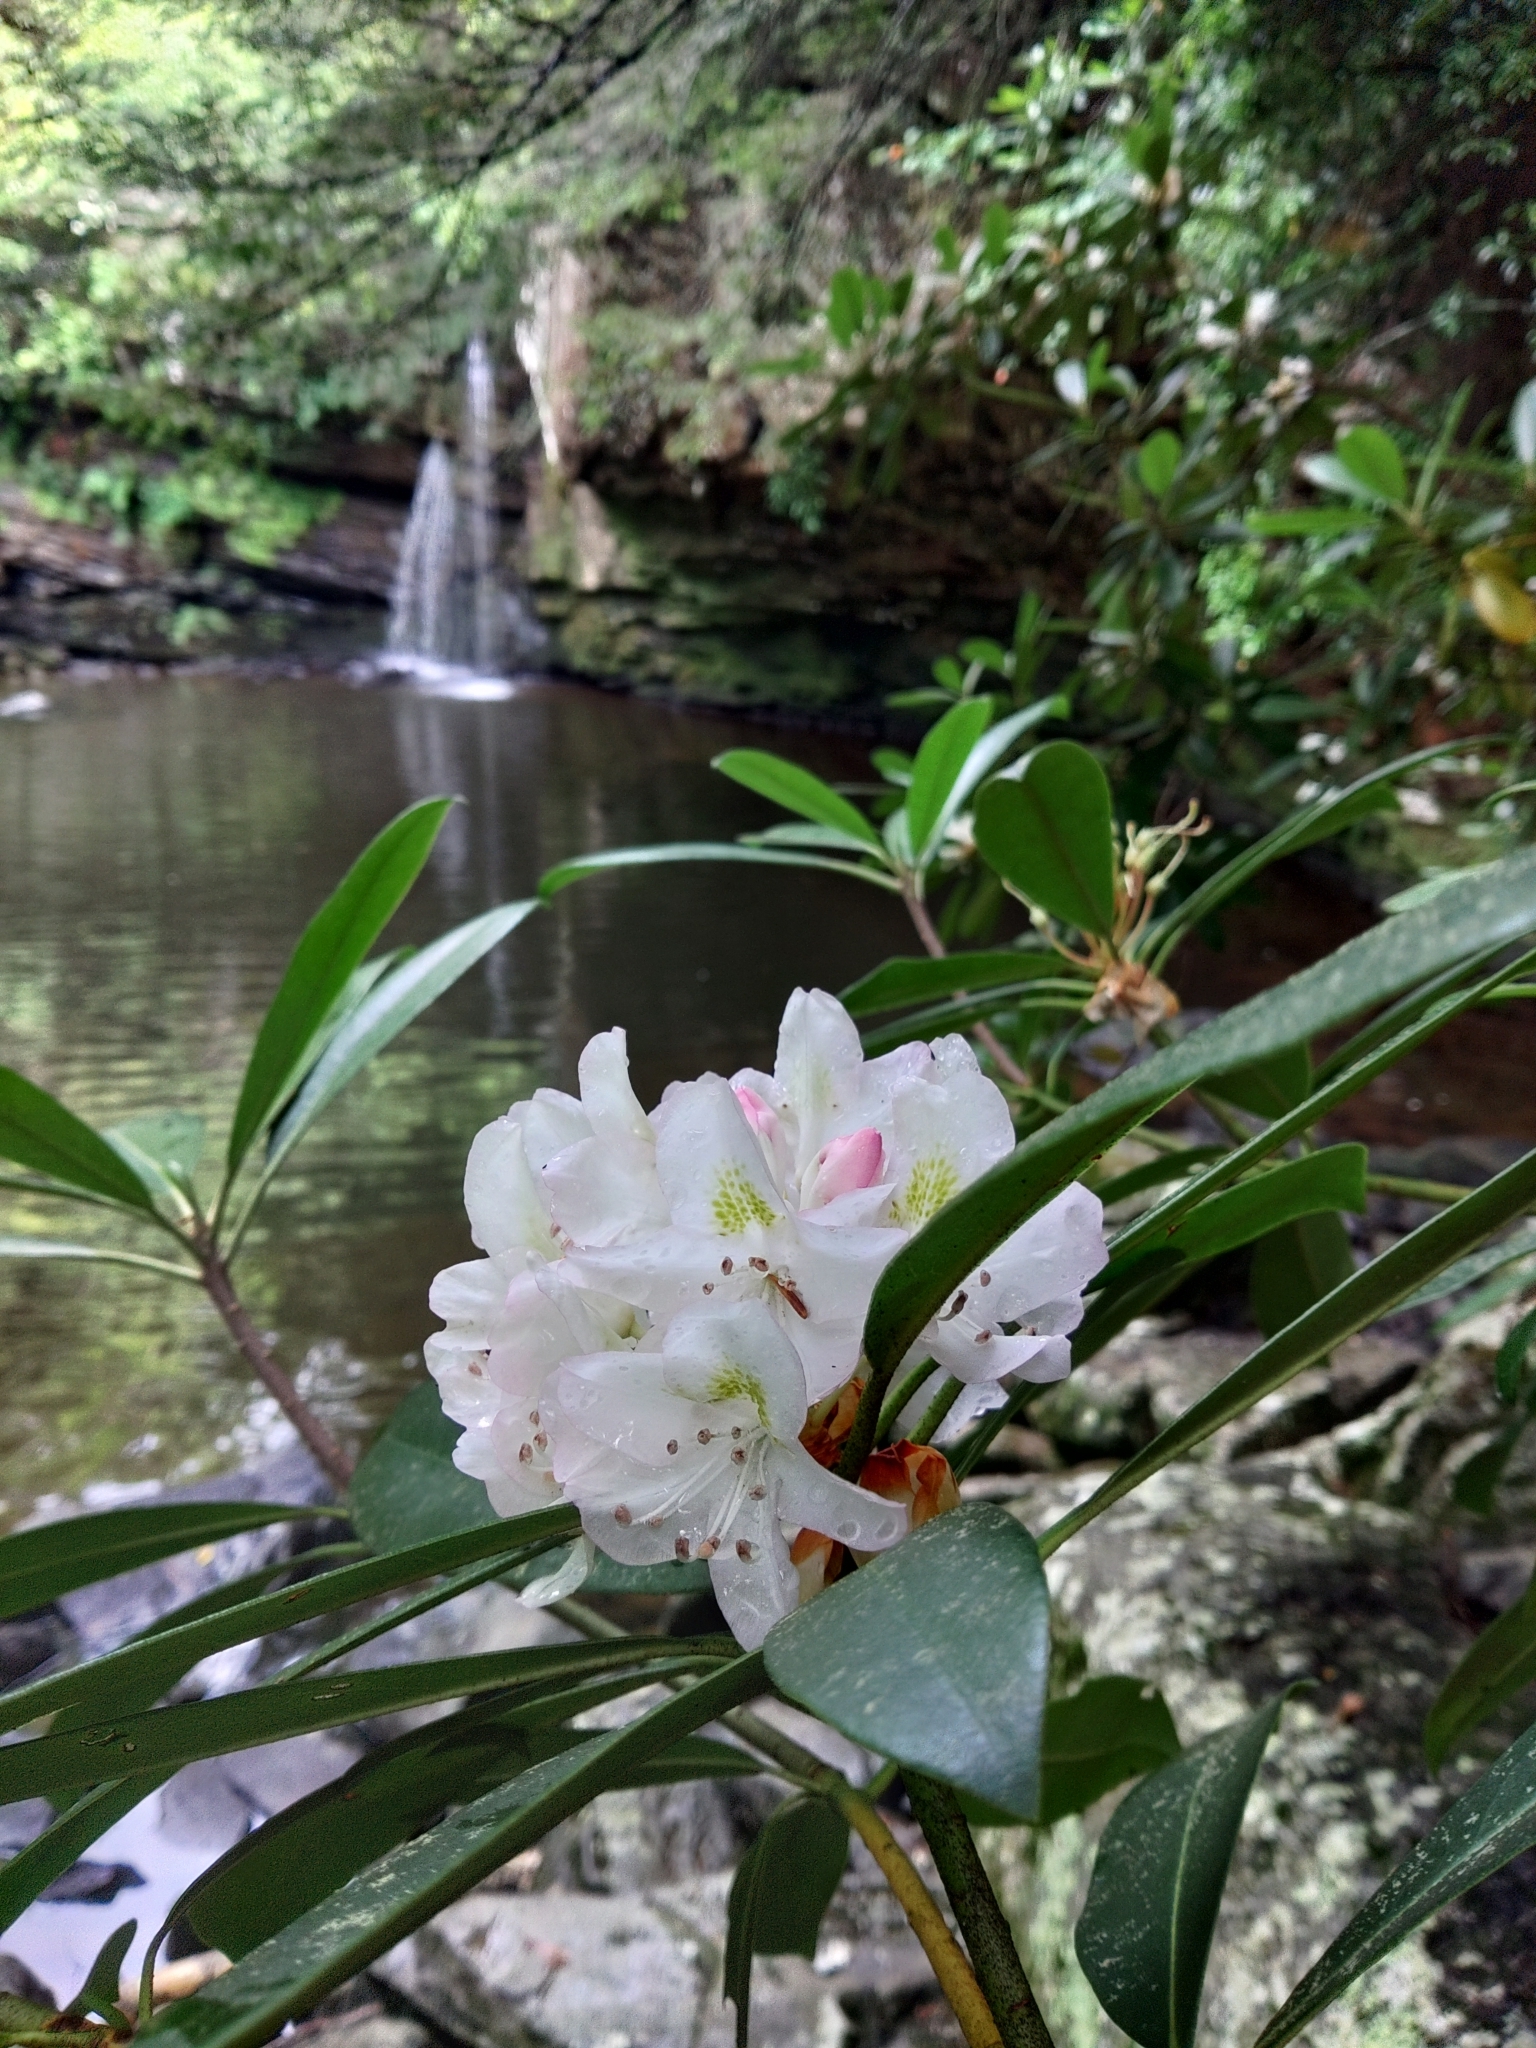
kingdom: Plantae
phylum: Tracheophyta
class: Magnoliopsida
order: Ericales
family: Ericaceae
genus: Rhododendron
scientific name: Rhododendron maximum
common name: Great rhododendron
